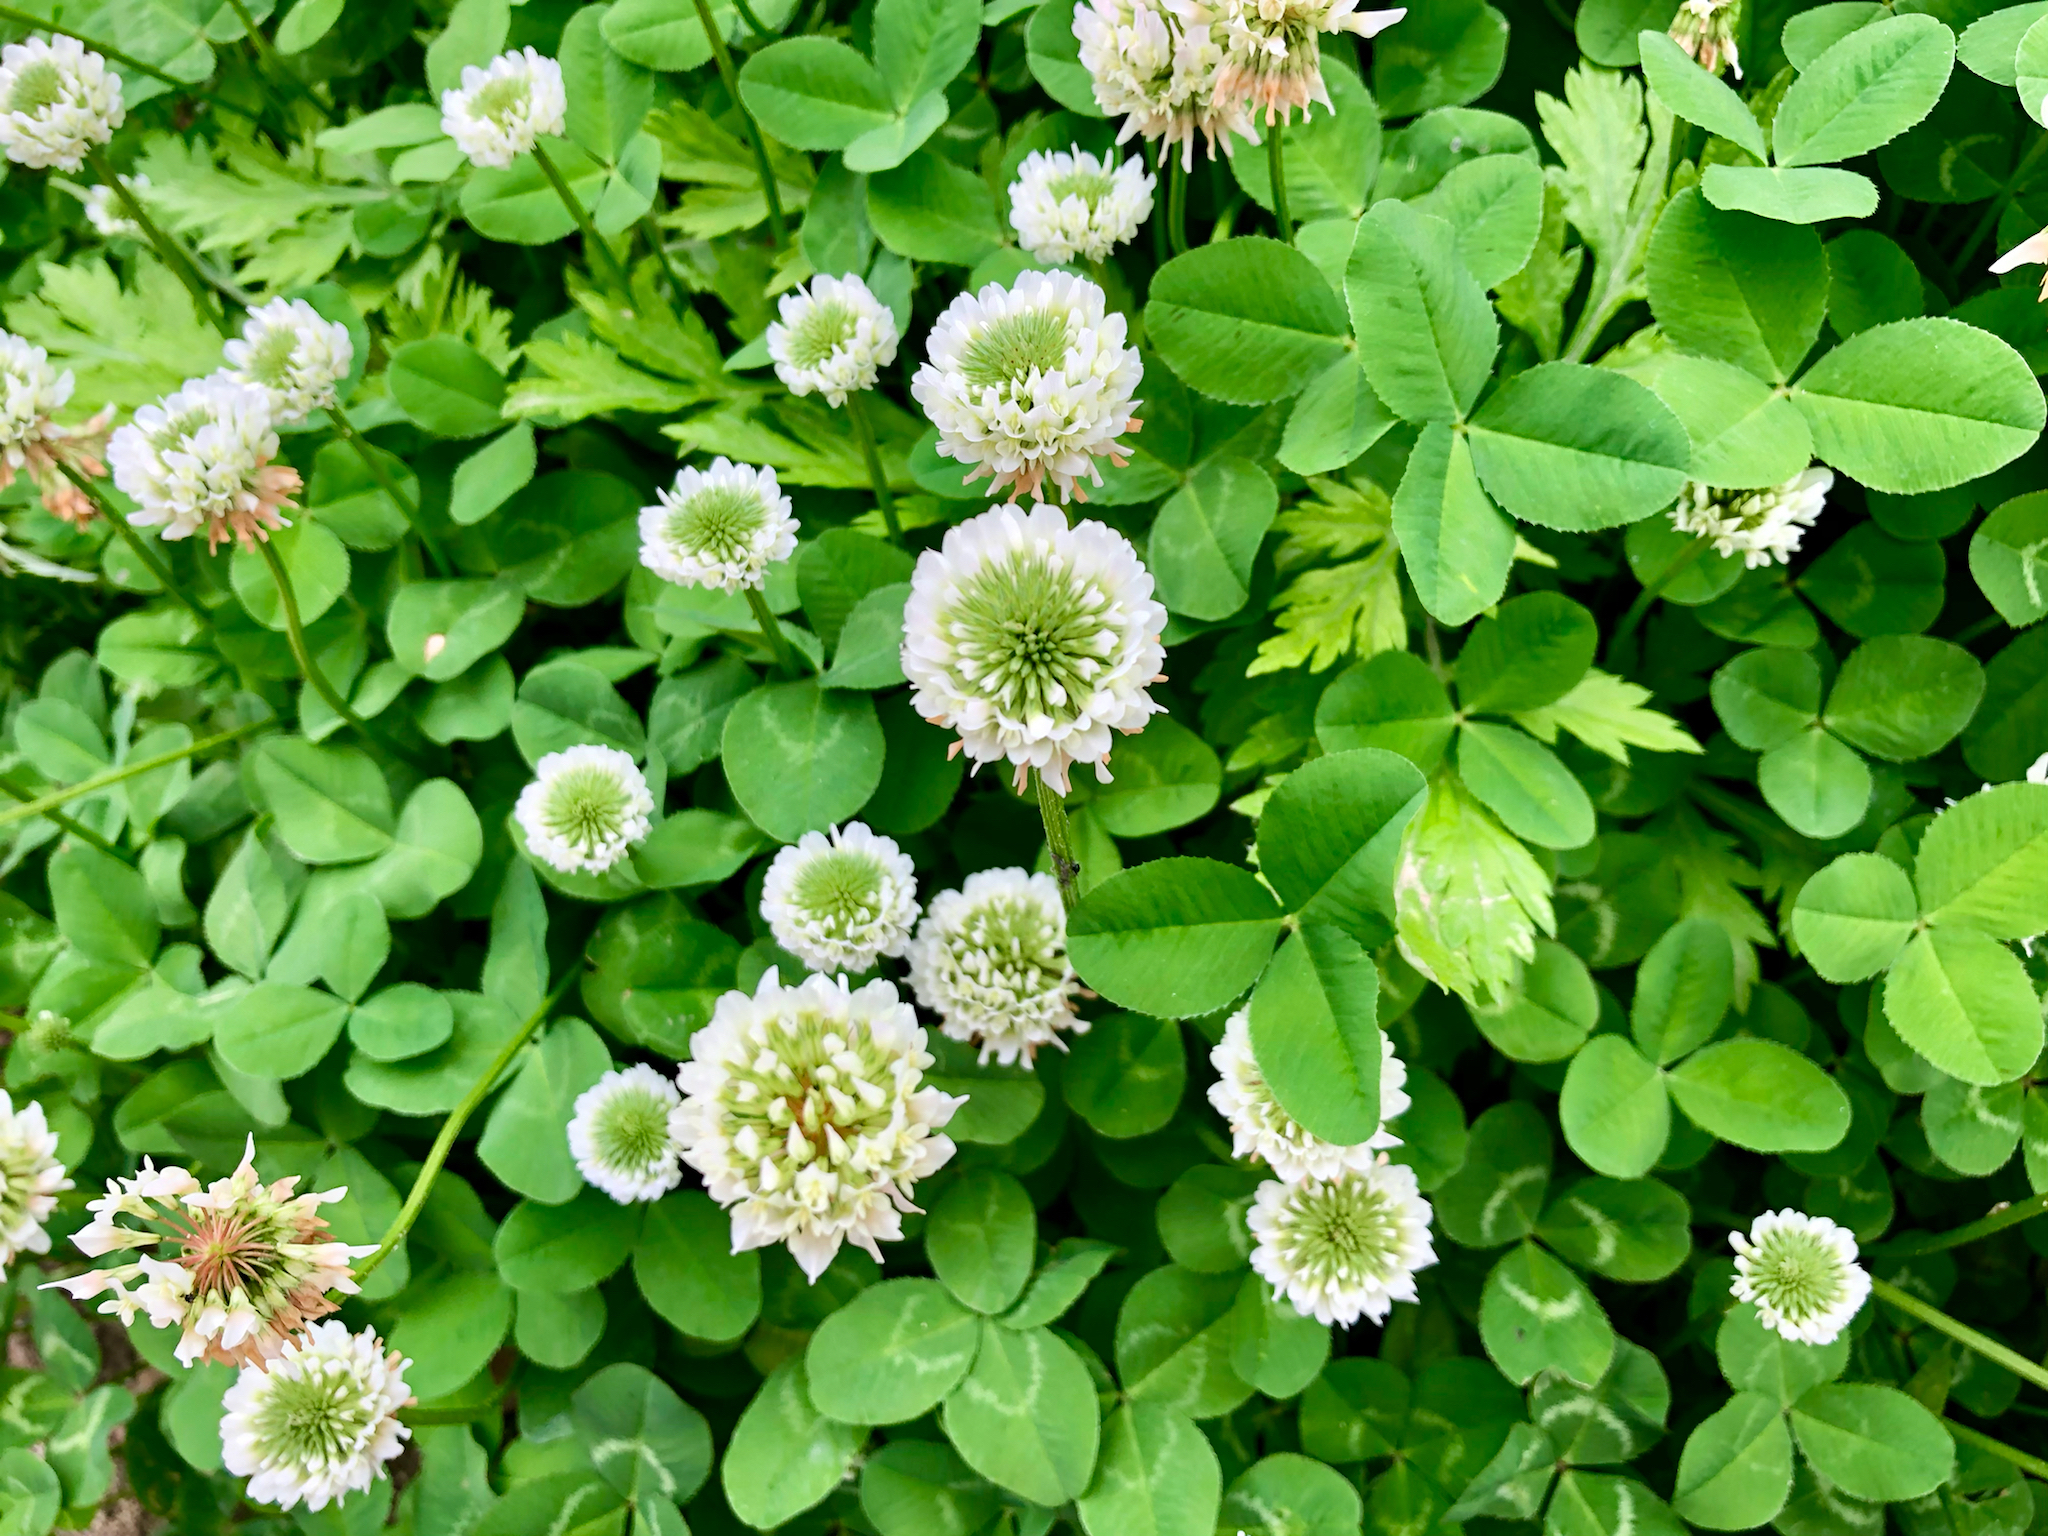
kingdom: Plantae
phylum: Tracheophyta
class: Magnoliopsida
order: Fabales
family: Fabaceae
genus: Trifolium
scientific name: Trifolium repens
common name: White clover
